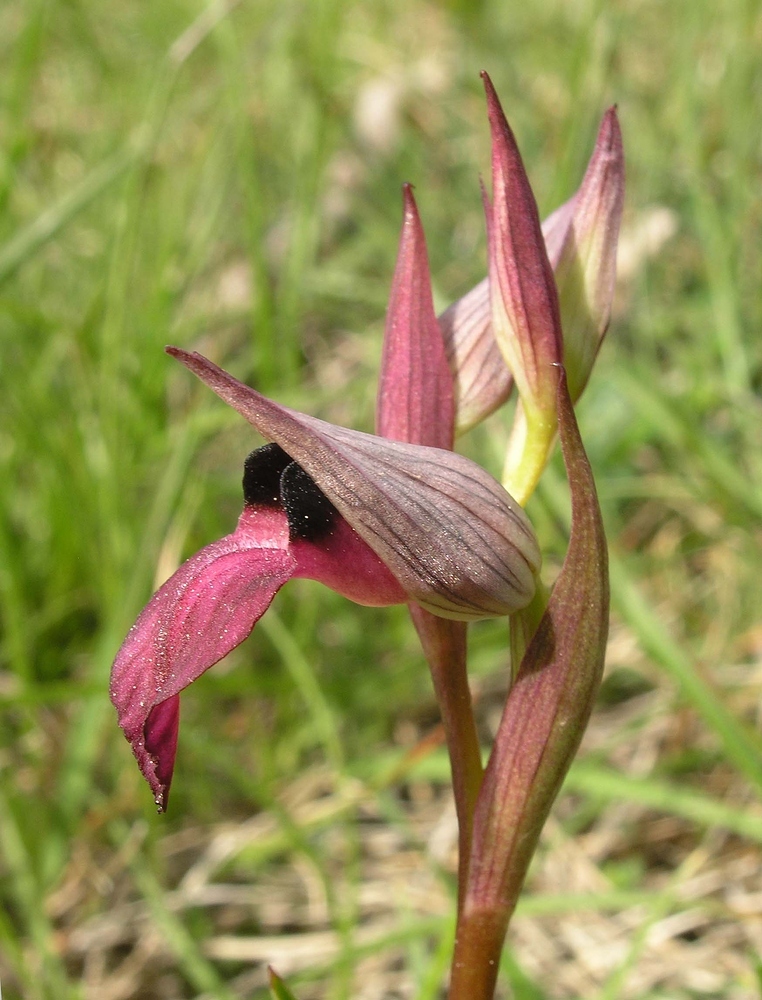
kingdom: Plantae
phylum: Tracheophyta
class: Liliopsida
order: Asparagales
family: Orchidaceae
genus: Serapias
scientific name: Serapias lingua
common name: Tongue-orchid
